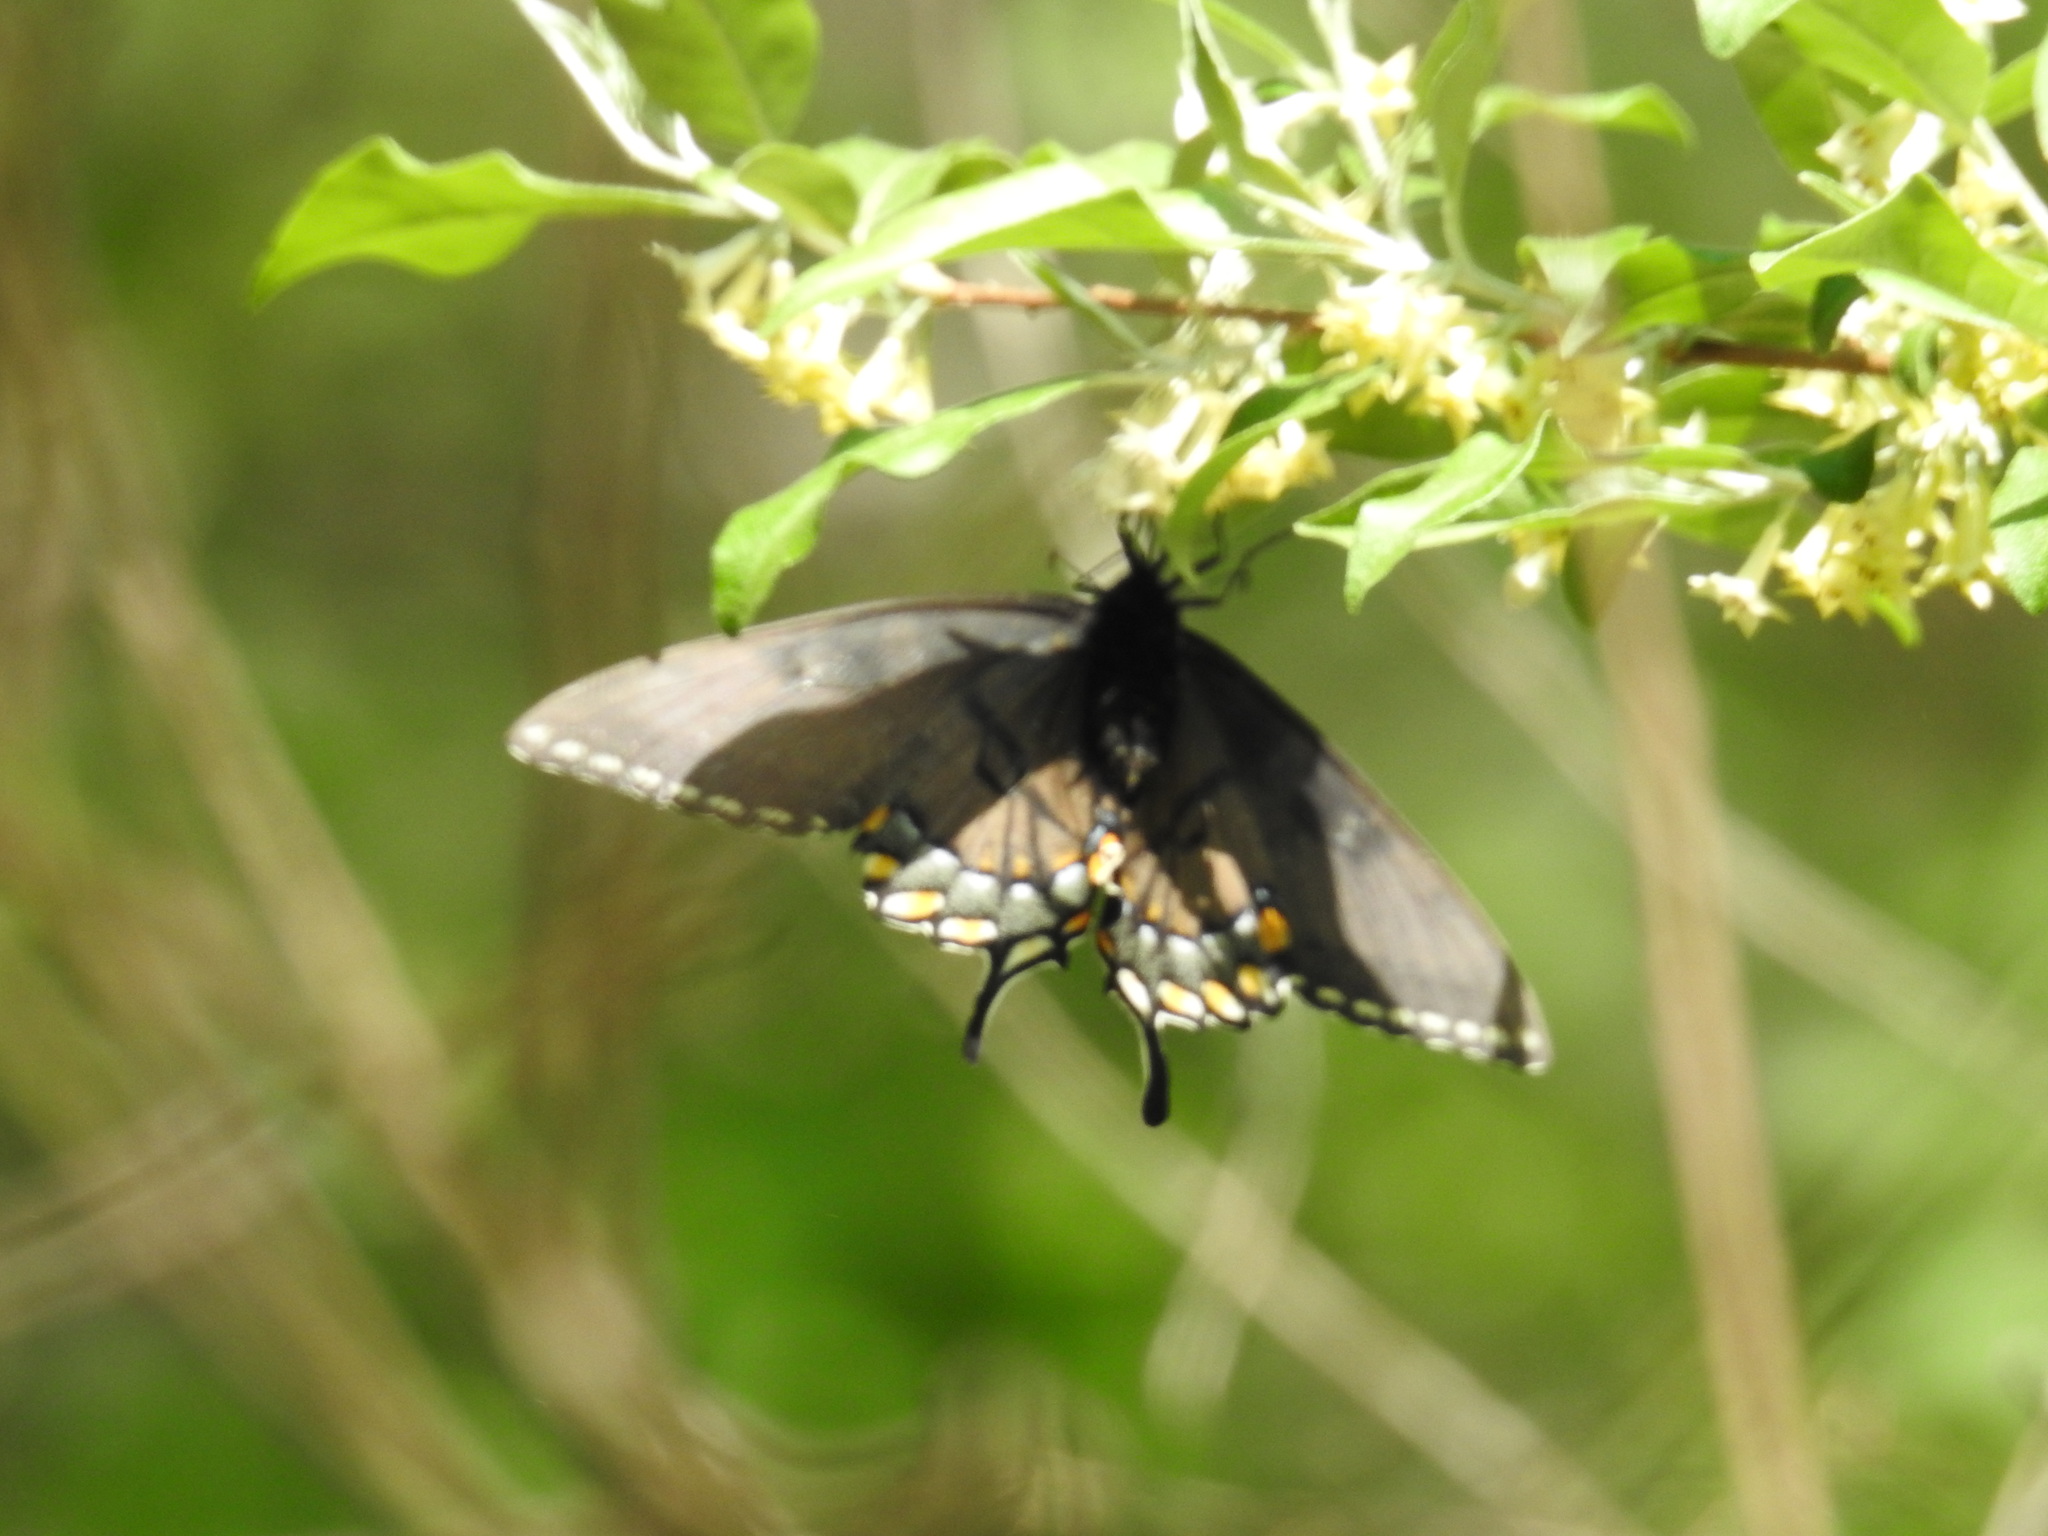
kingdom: Animalia
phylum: Arthropoda
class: Insecta
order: Lepidoptera
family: Papilionidae
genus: Papilio
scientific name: Papilio glaucus
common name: Tiger swallowtail
